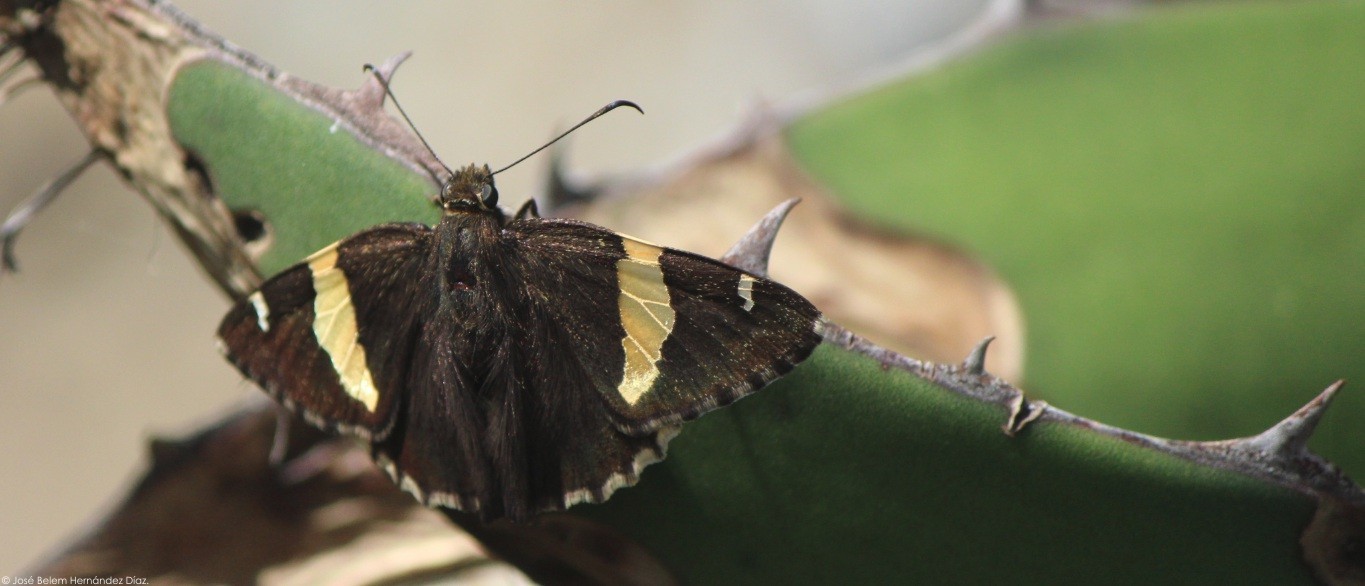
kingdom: Animalia
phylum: Arthropoda
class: Arachnida
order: Scorpiones
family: Bothriuridae
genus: Telegonus
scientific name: Telegonus cellus
